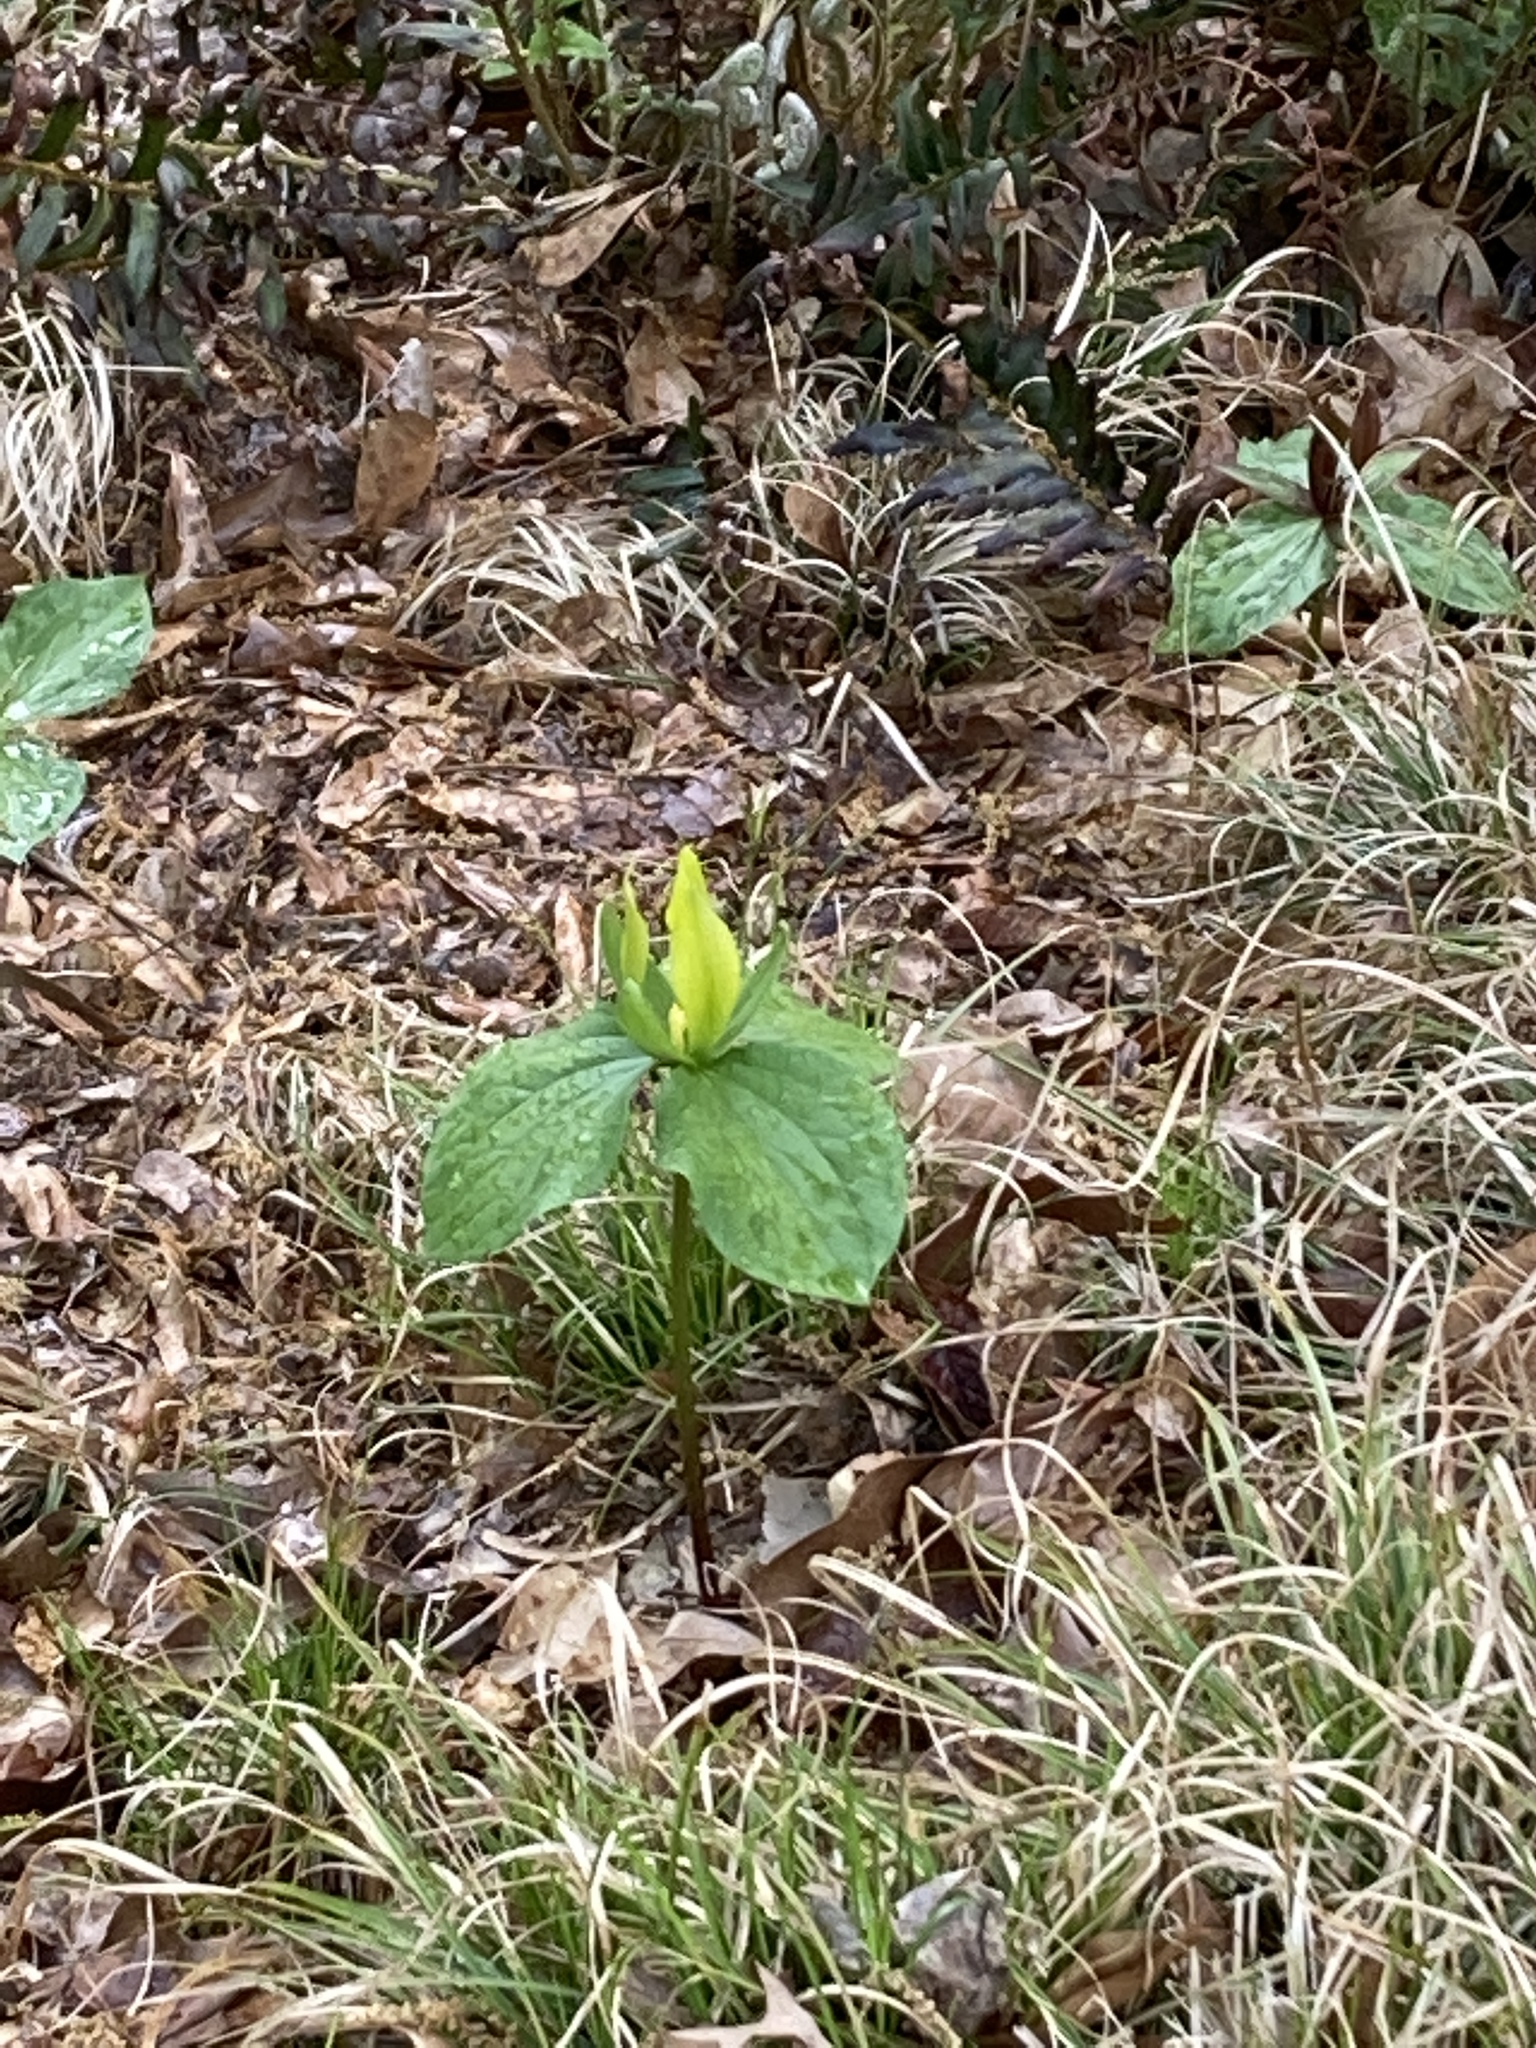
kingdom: Plantae
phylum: Tracheophyta
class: Liliopsida
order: Liliales
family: Melanthiaceae
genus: Trillium
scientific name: Trillium cuneatum
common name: Cuneate trillium
